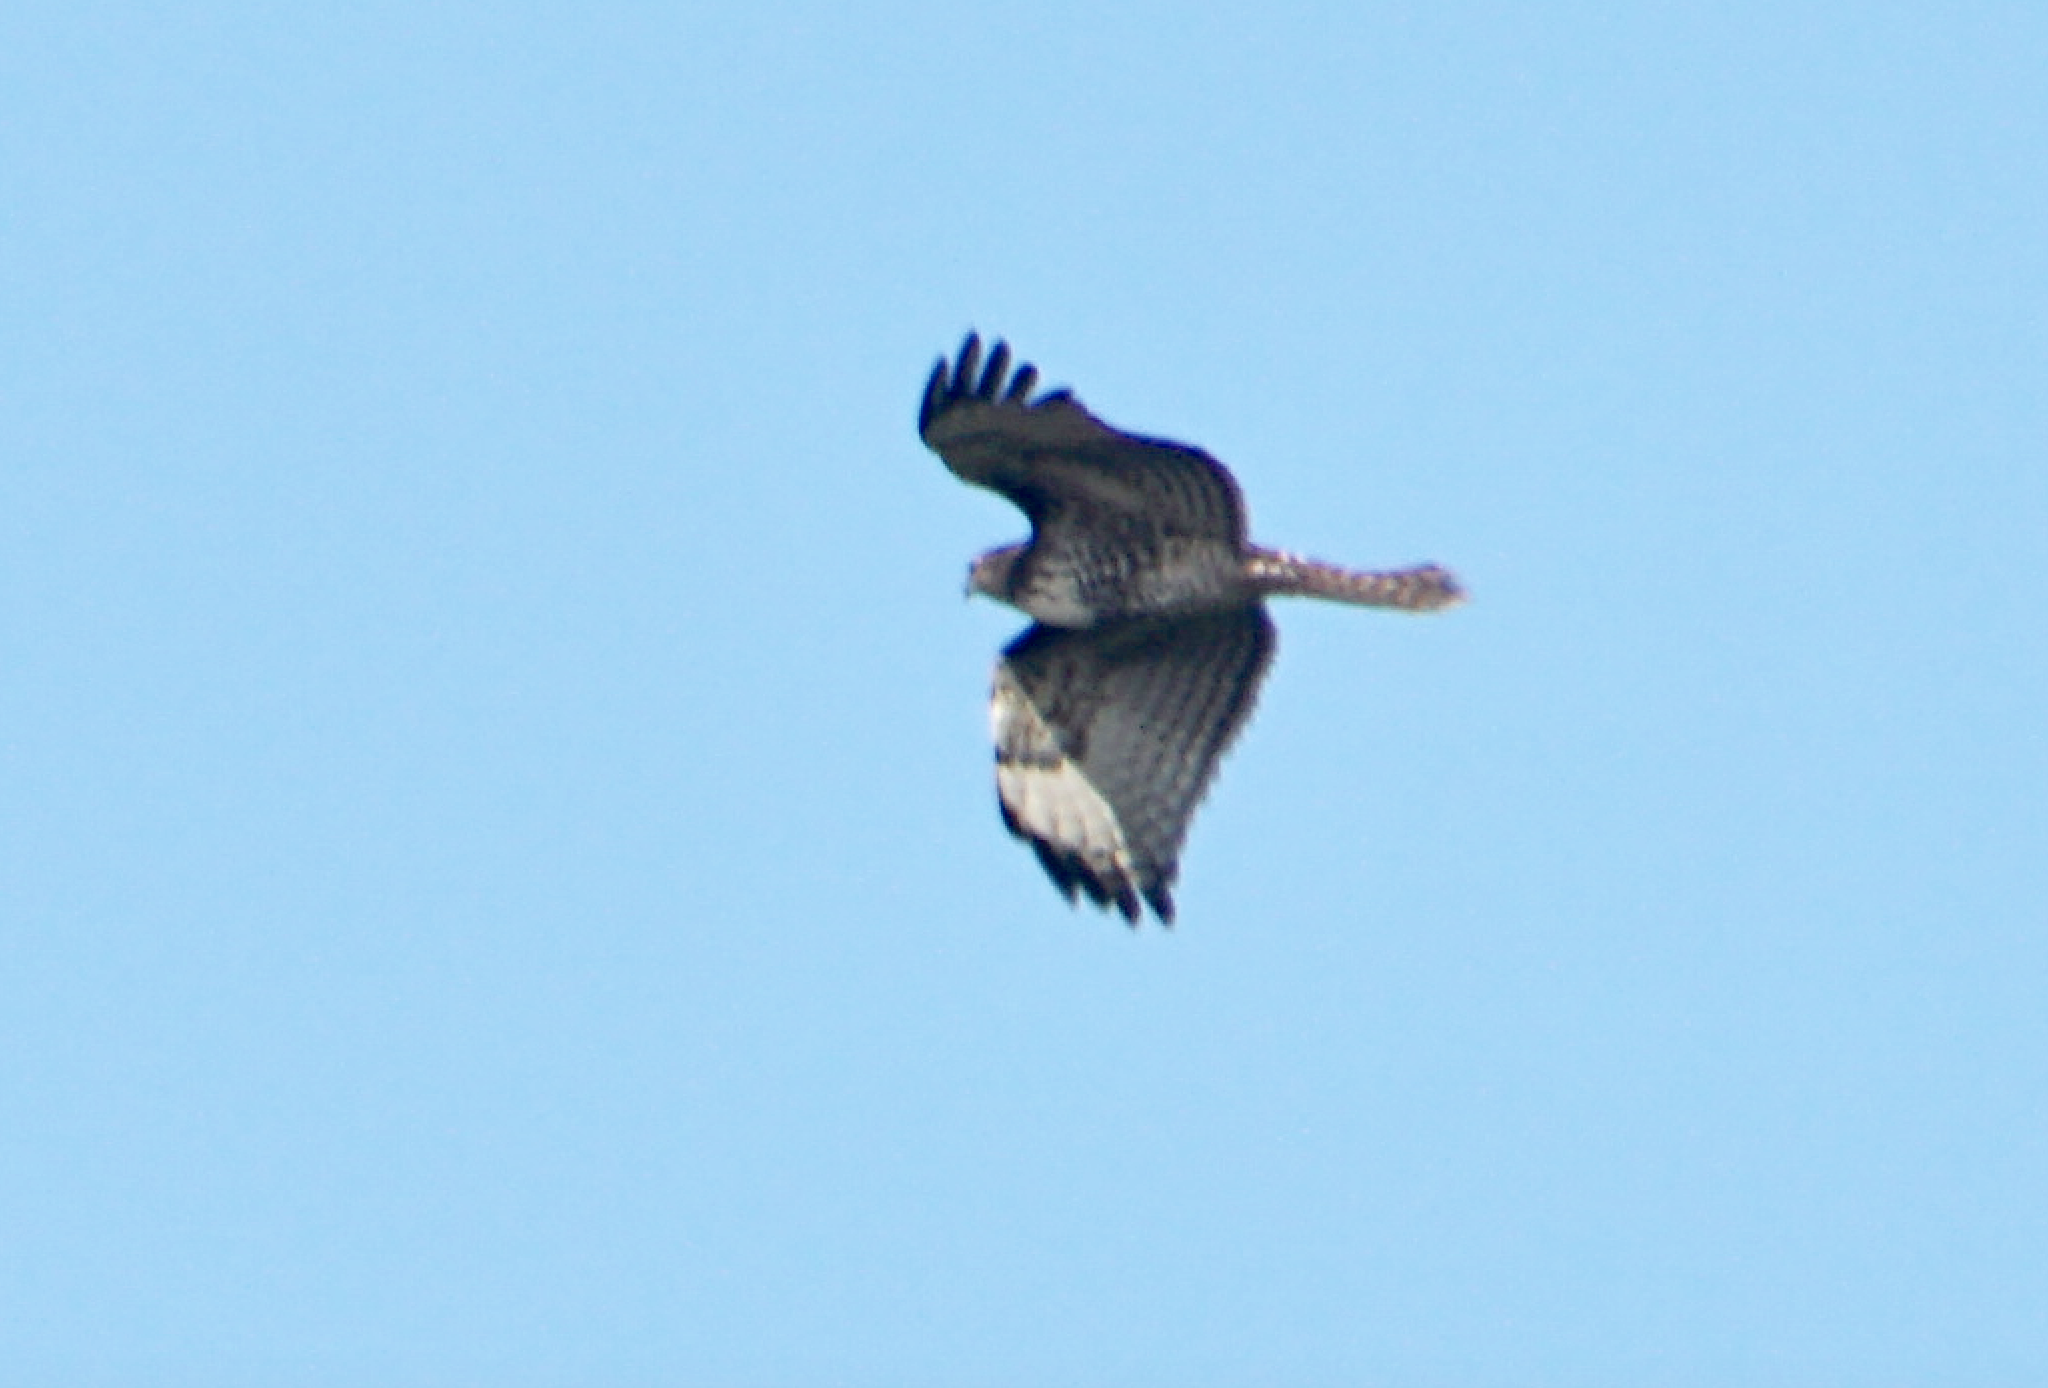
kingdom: Animalia
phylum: Chordata
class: Aves
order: Accipitriformes
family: Accipitridae
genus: Buteo
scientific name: Buteo jamaicensis
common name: Red-tailed hawk
